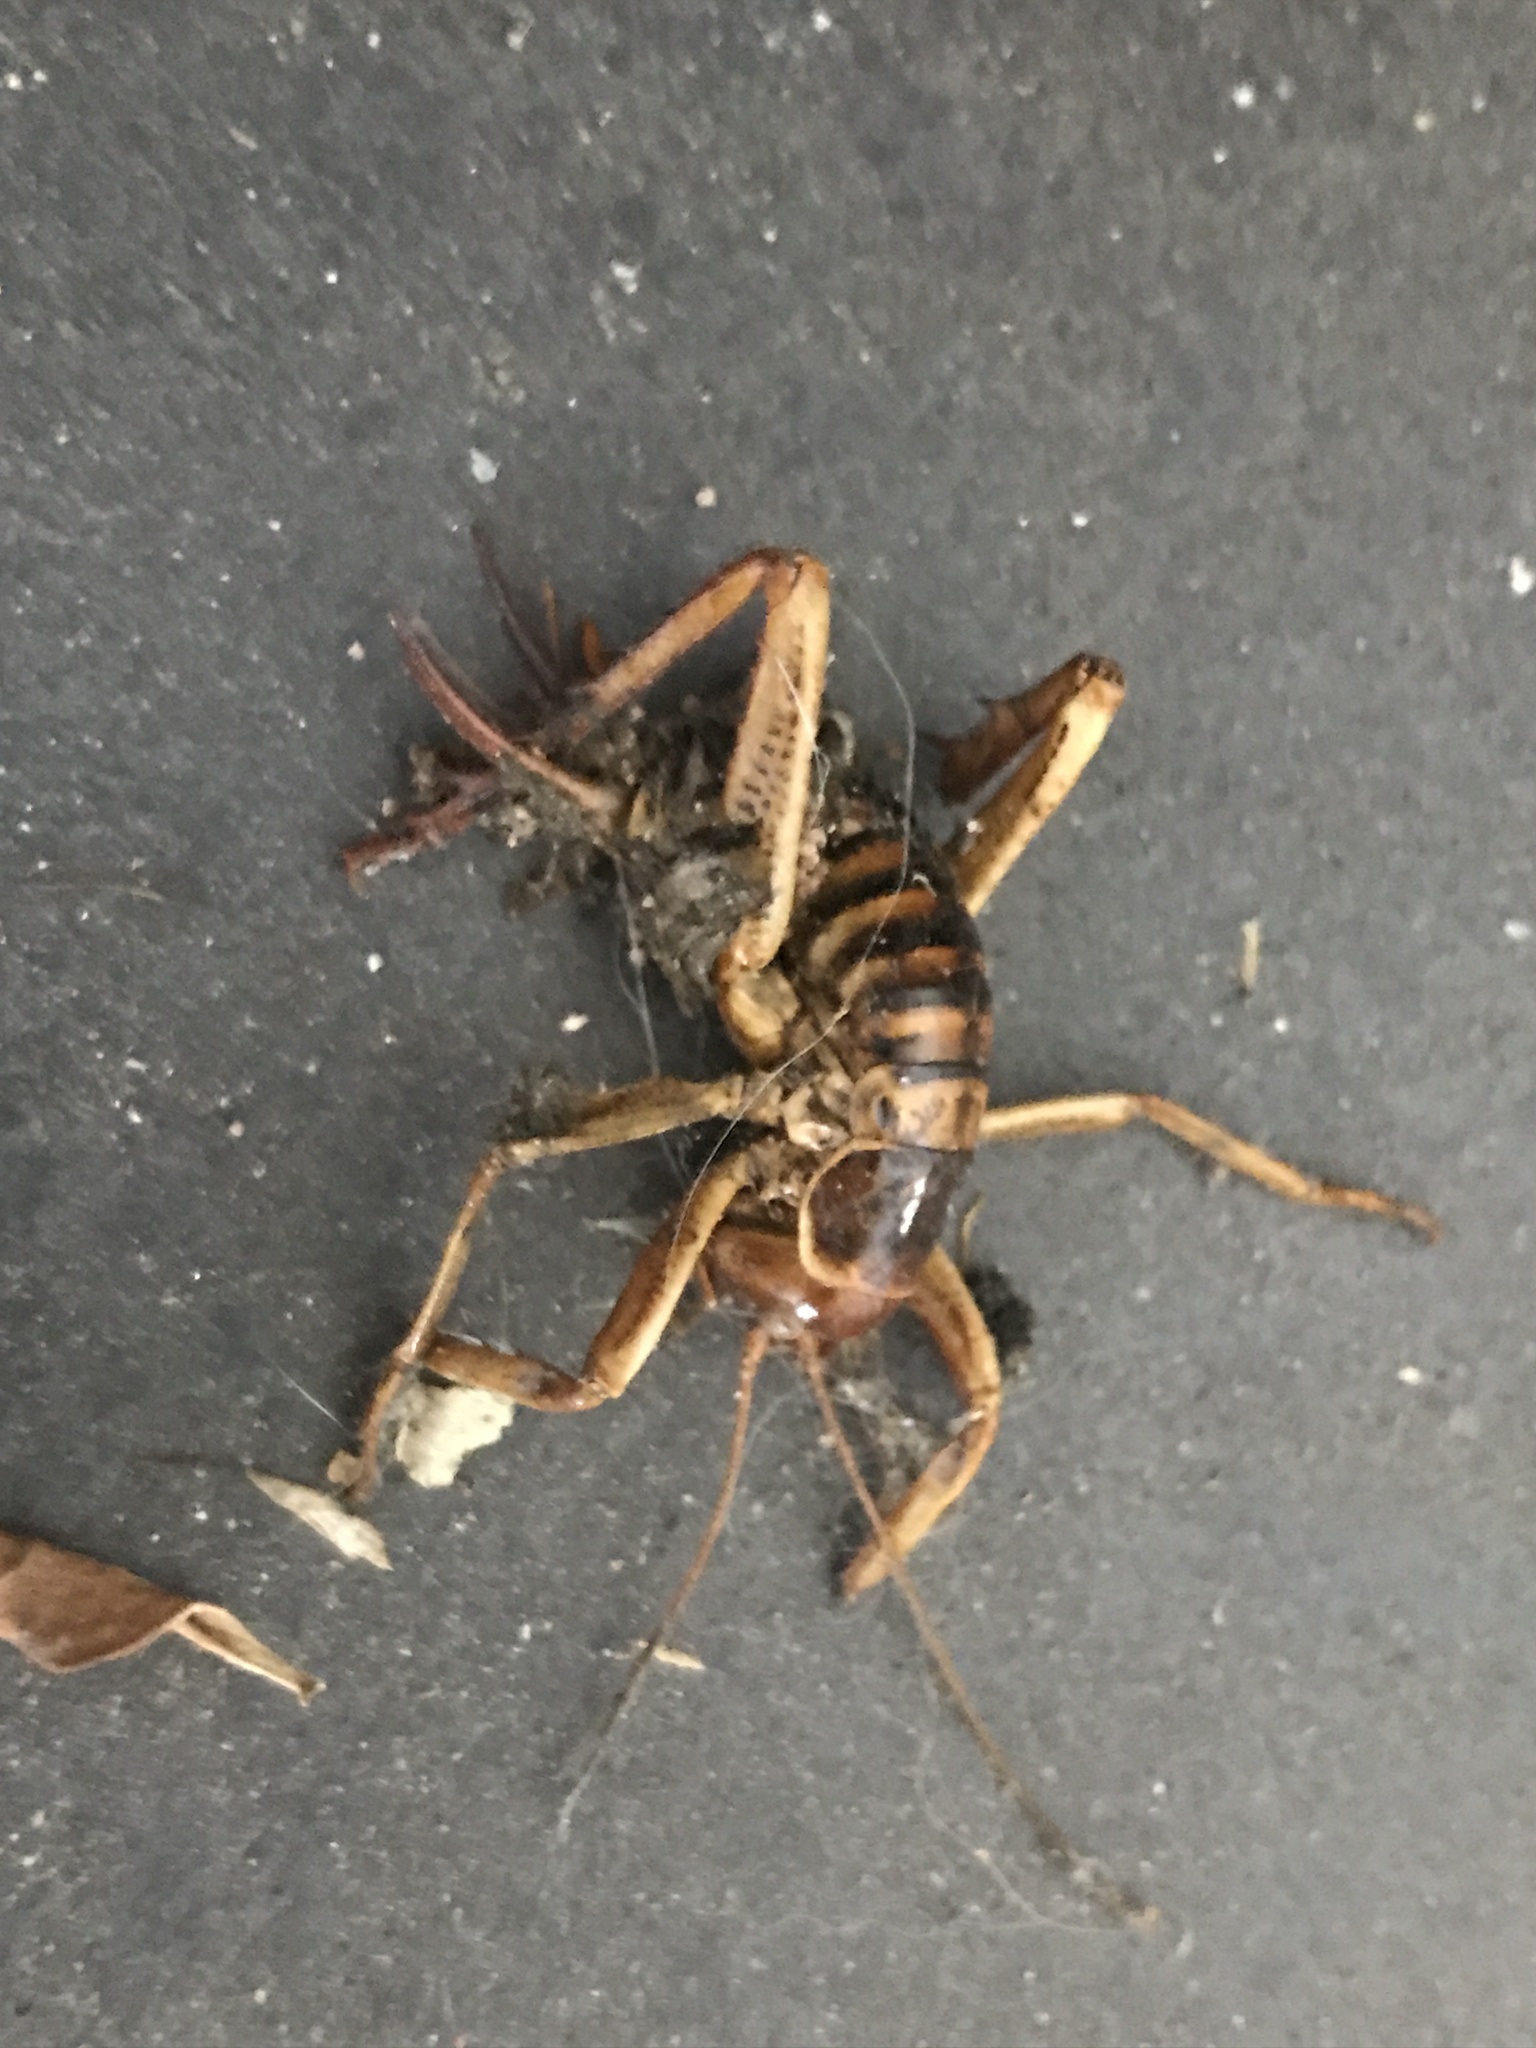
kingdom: Animalia
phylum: Arthropoda
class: Insecta
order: Orthoptera
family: Anostostomatidae
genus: Hemideina
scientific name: Hemideina crassidens
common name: Wellington tree weta
